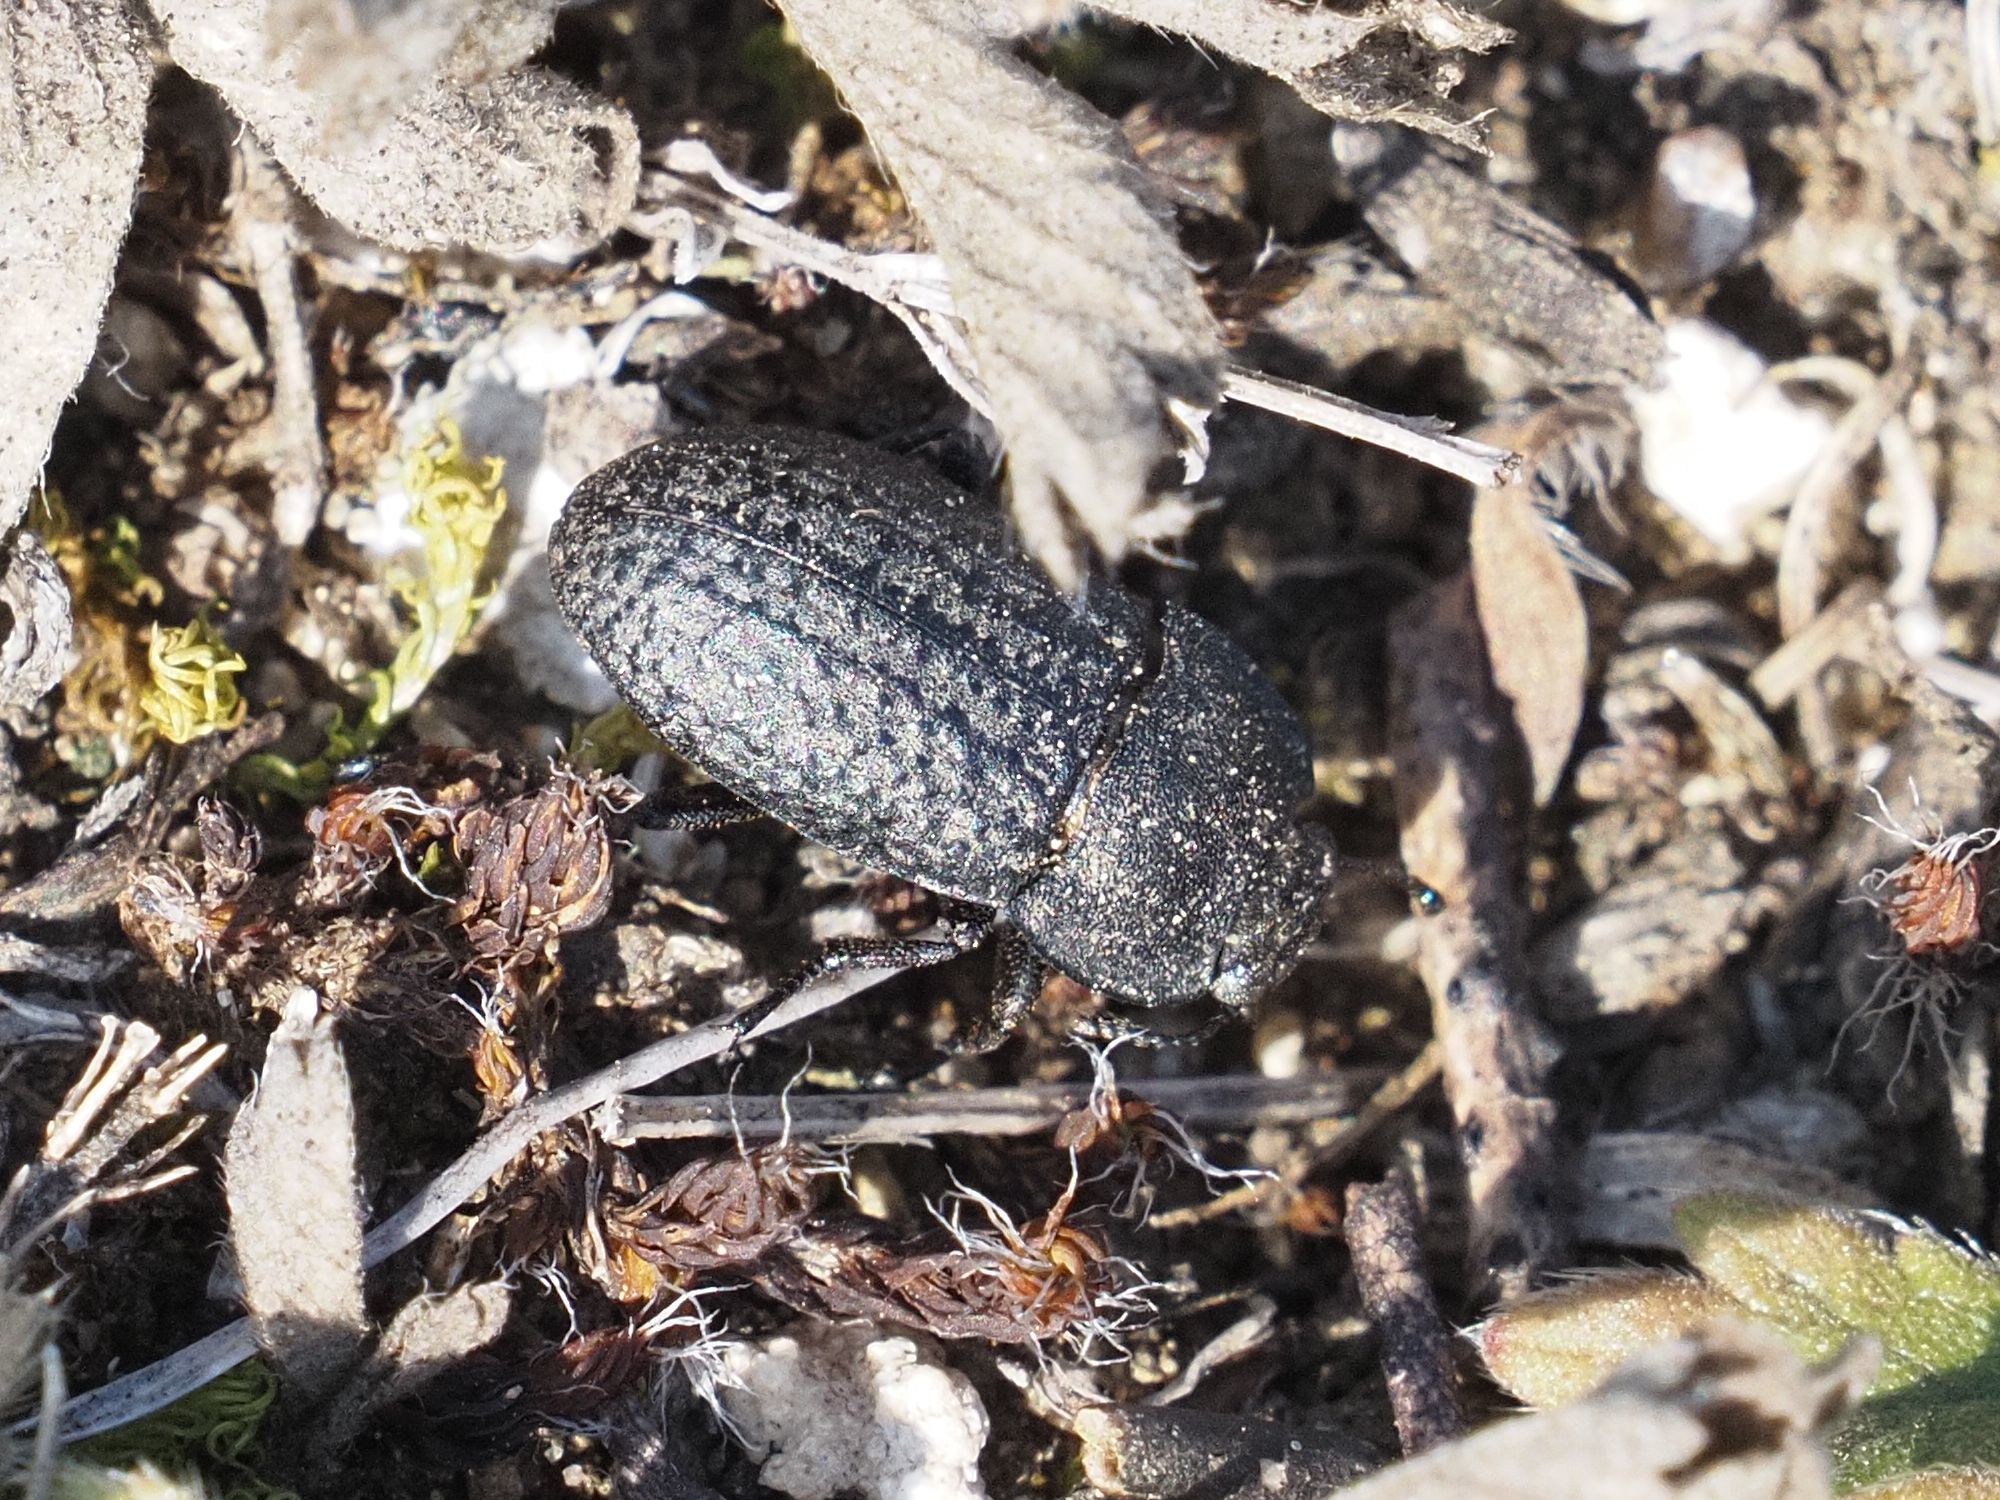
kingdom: Animalia
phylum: Arthropoda
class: Insecta
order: Coleoptera
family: Tenebrionidae
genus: Opatrum
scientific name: Opatrum sabulosum
